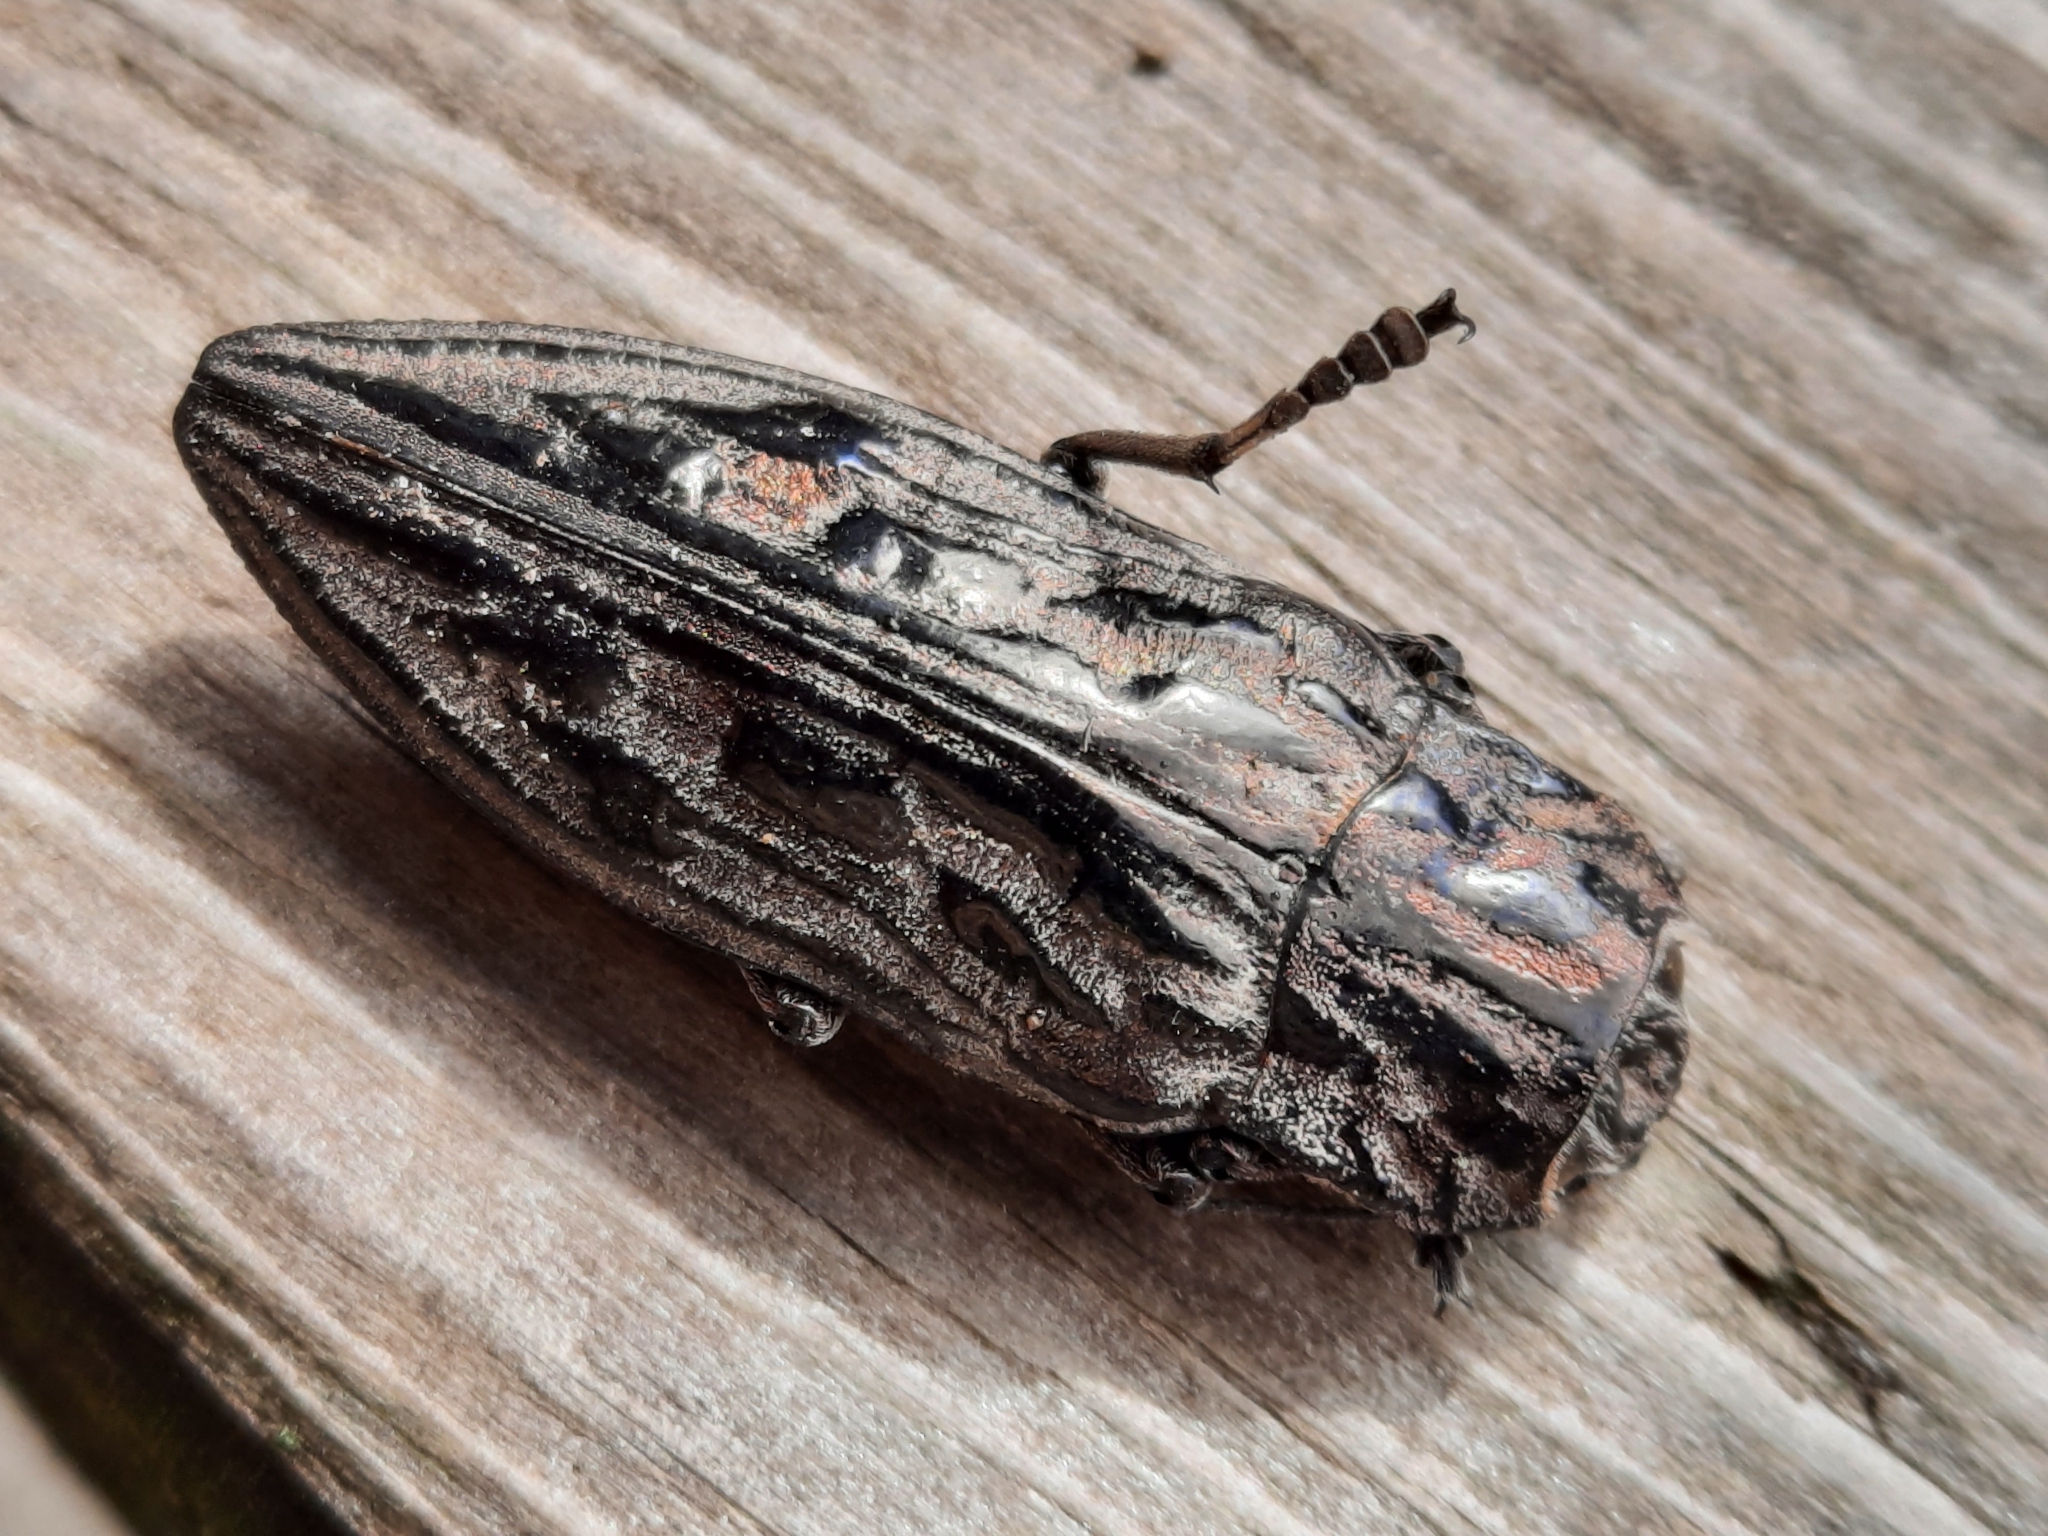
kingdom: Animalia
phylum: Arthropoda
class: Insecta
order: Coleoptera
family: Buprestidae
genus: Chalcophora
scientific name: Chalcophora angulicollis
